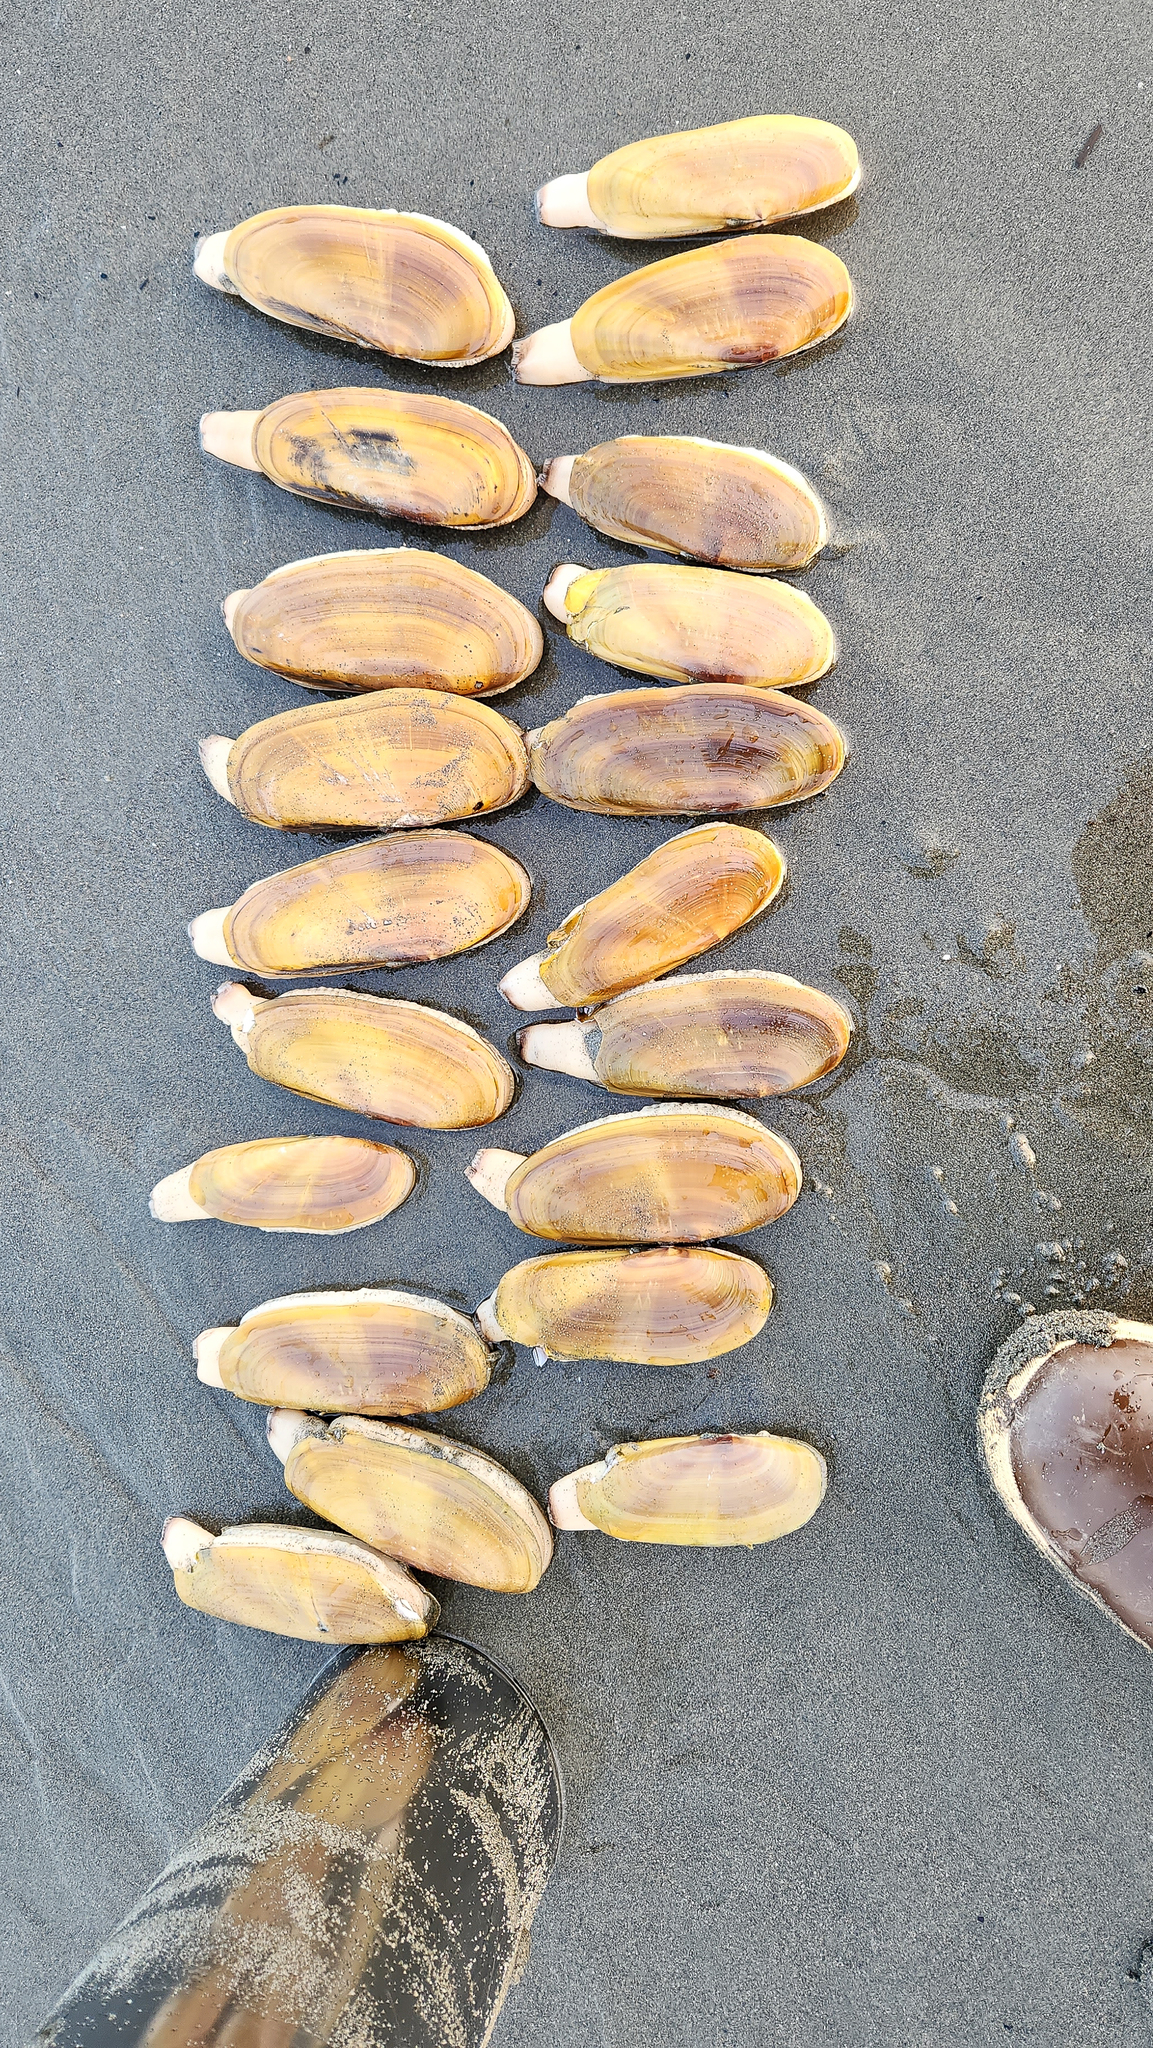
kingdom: Animalia
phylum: Mollusca
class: Bivalvia
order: Adapedonta
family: Pharidae
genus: Siliqua
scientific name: Siliqua patula
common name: Pacific razor clam
